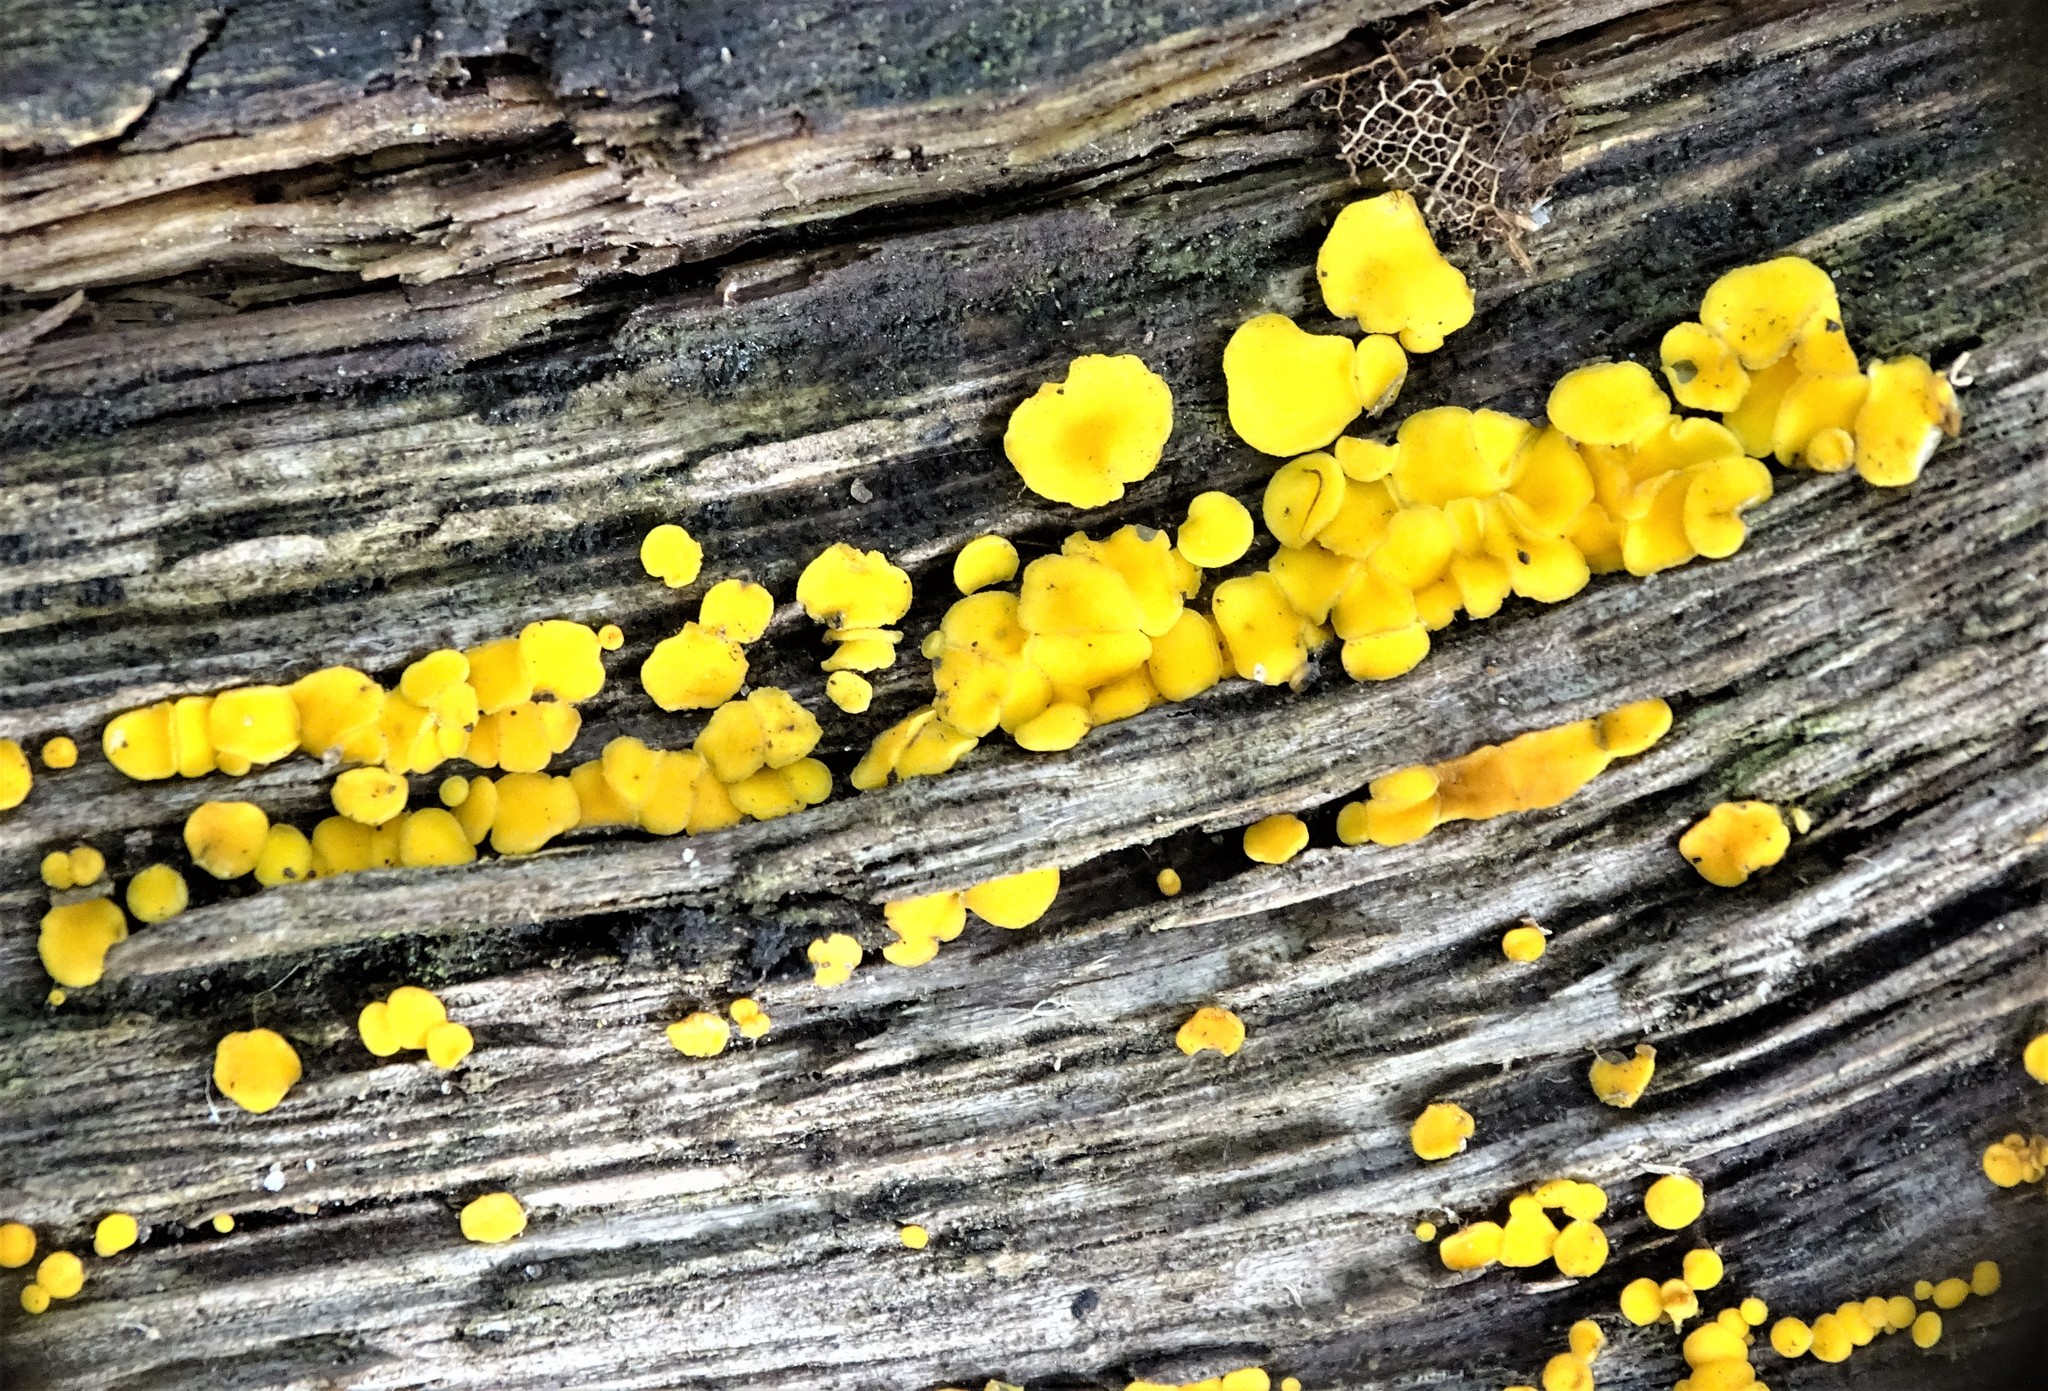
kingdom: Fungi
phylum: Ascomycota
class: Leotiomycetes
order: Helotiales
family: Pezizellaceae
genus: Calycina
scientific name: Calycina citrina
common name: Yellow fairy cups
